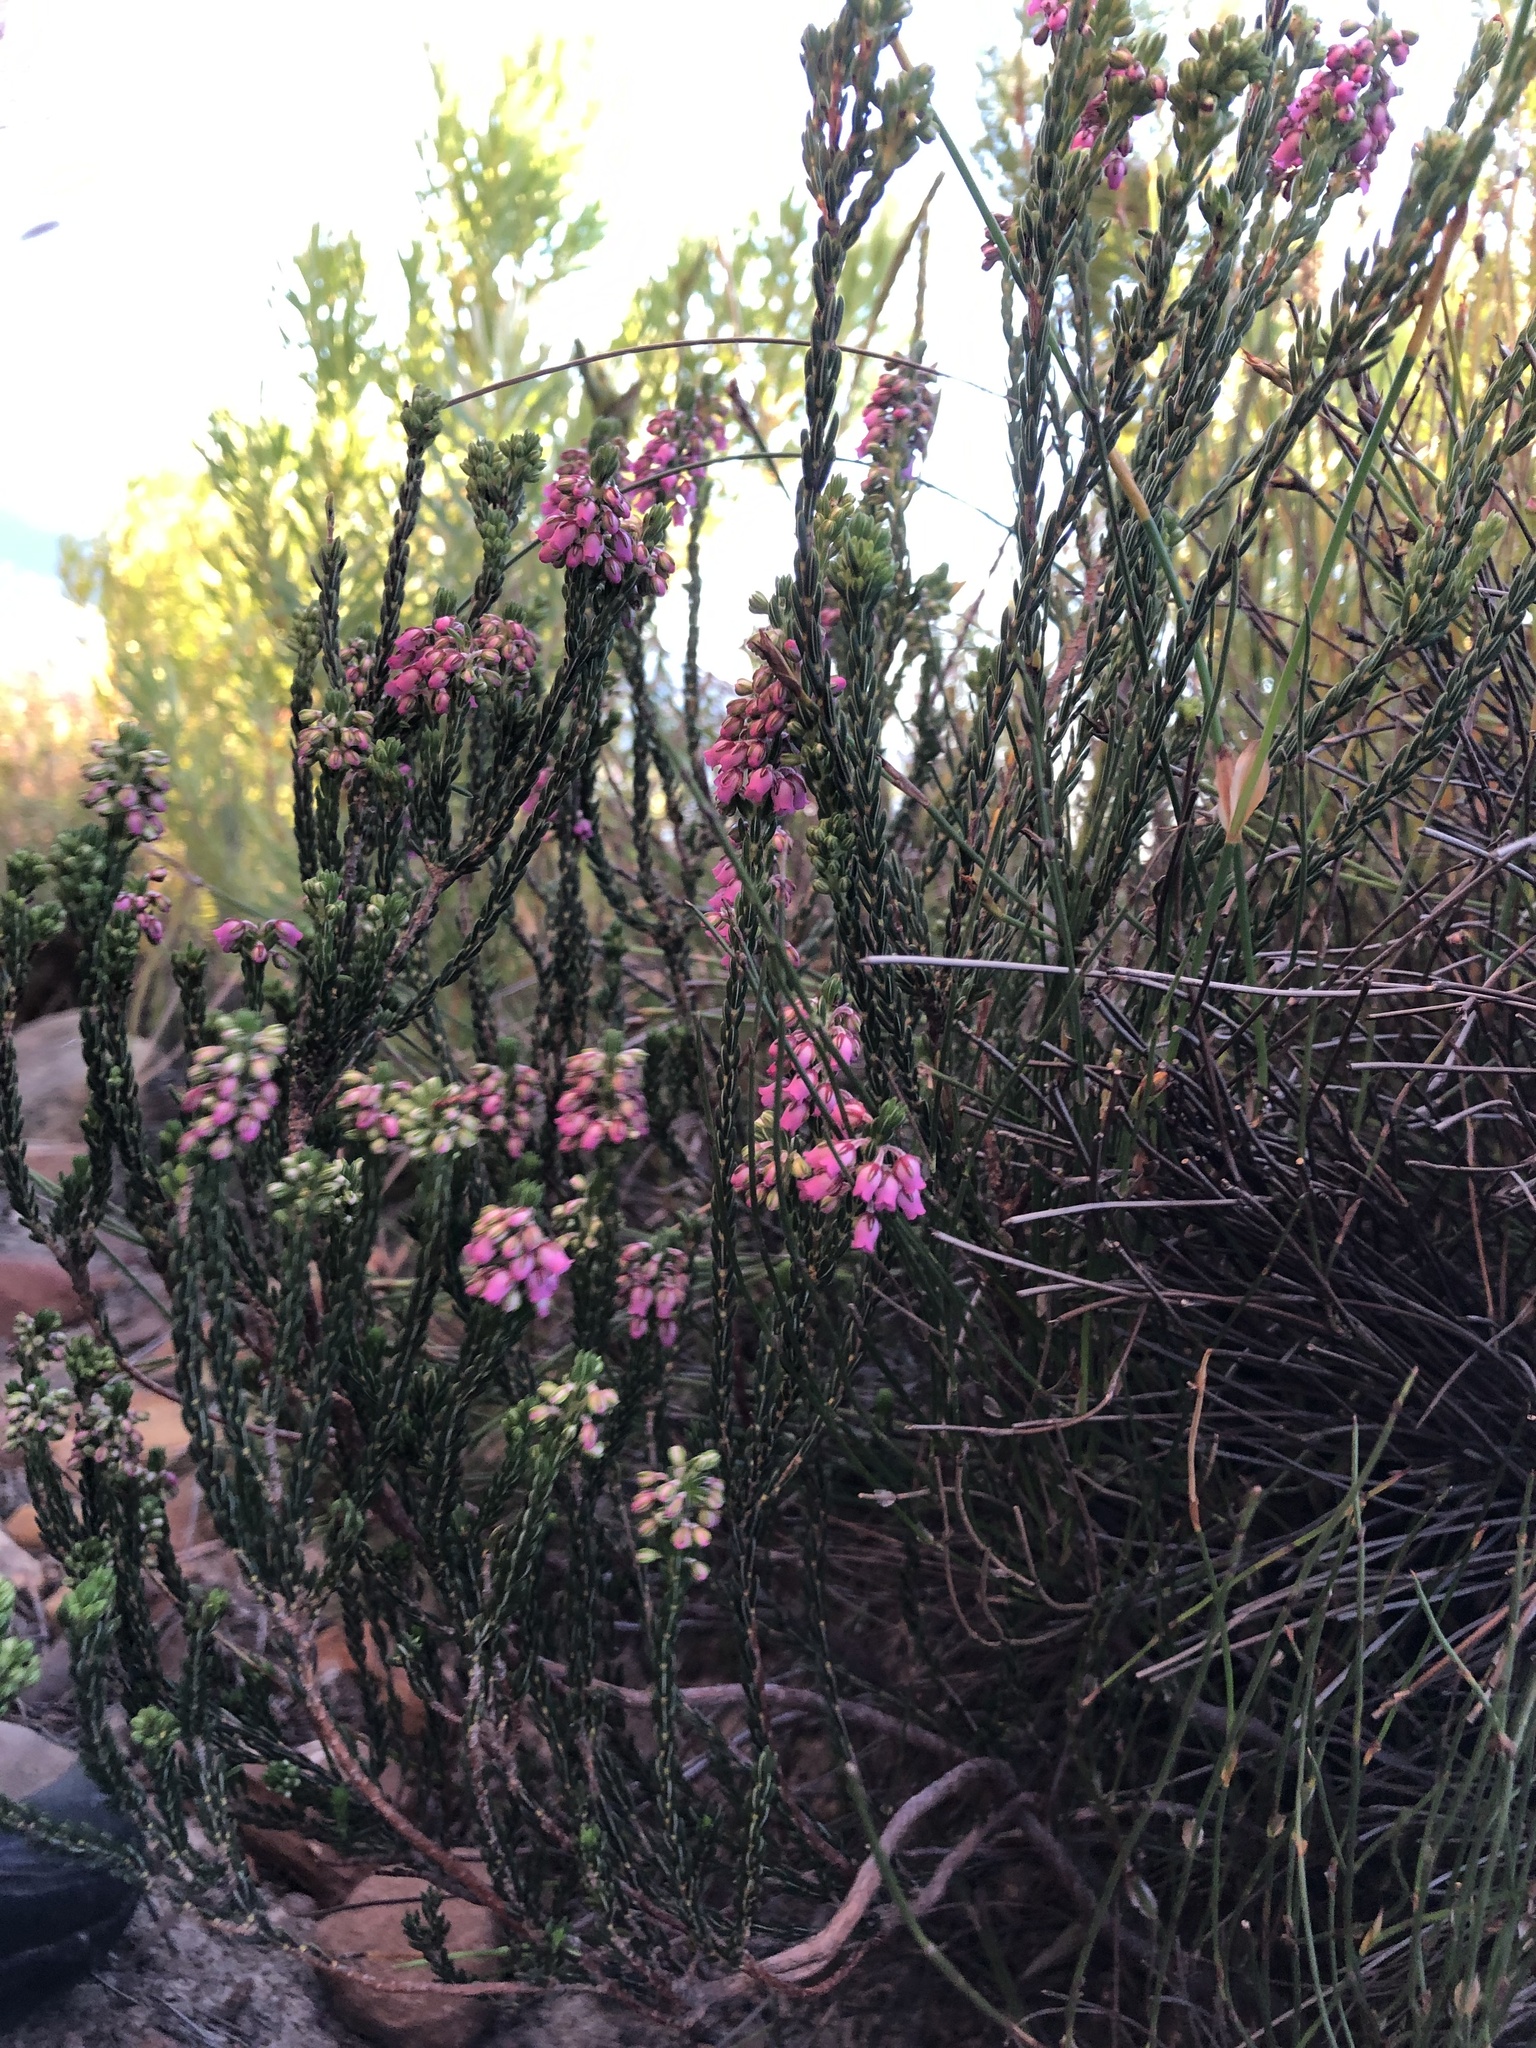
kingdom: Plantae
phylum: Tracheophyta
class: Magnoliopsida
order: Ericales
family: Ericaceae
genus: Erica
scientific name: Erica pulchella
